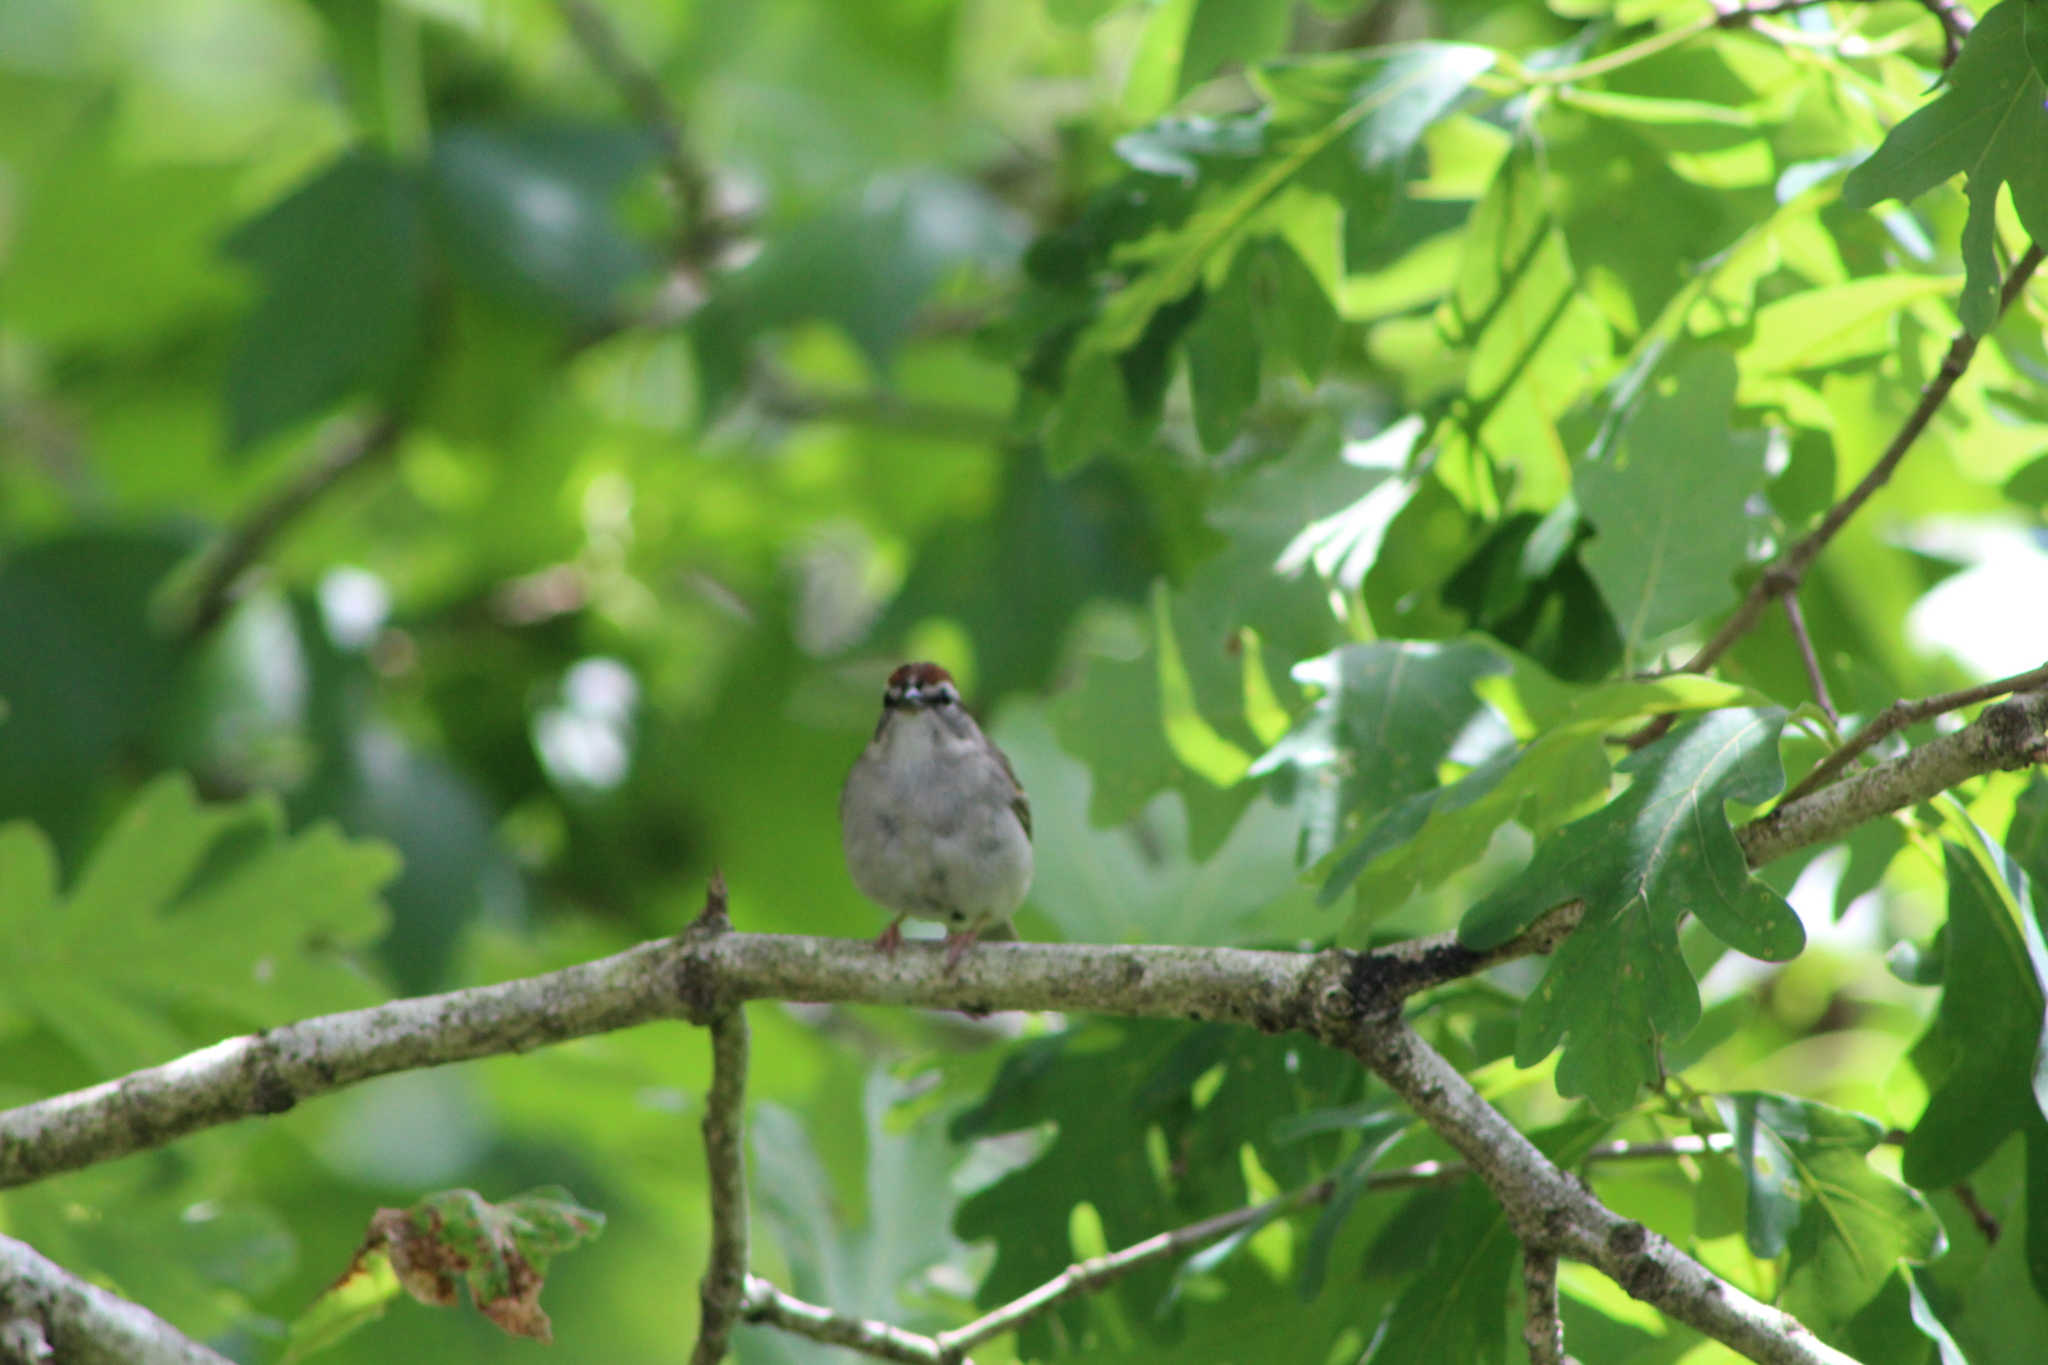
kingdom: Animalia
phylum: Chordata
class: Aves
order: Passeriformes
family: Passerellidae
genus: Spizella
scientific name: Spizella passerina
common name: Chipping sparrow
